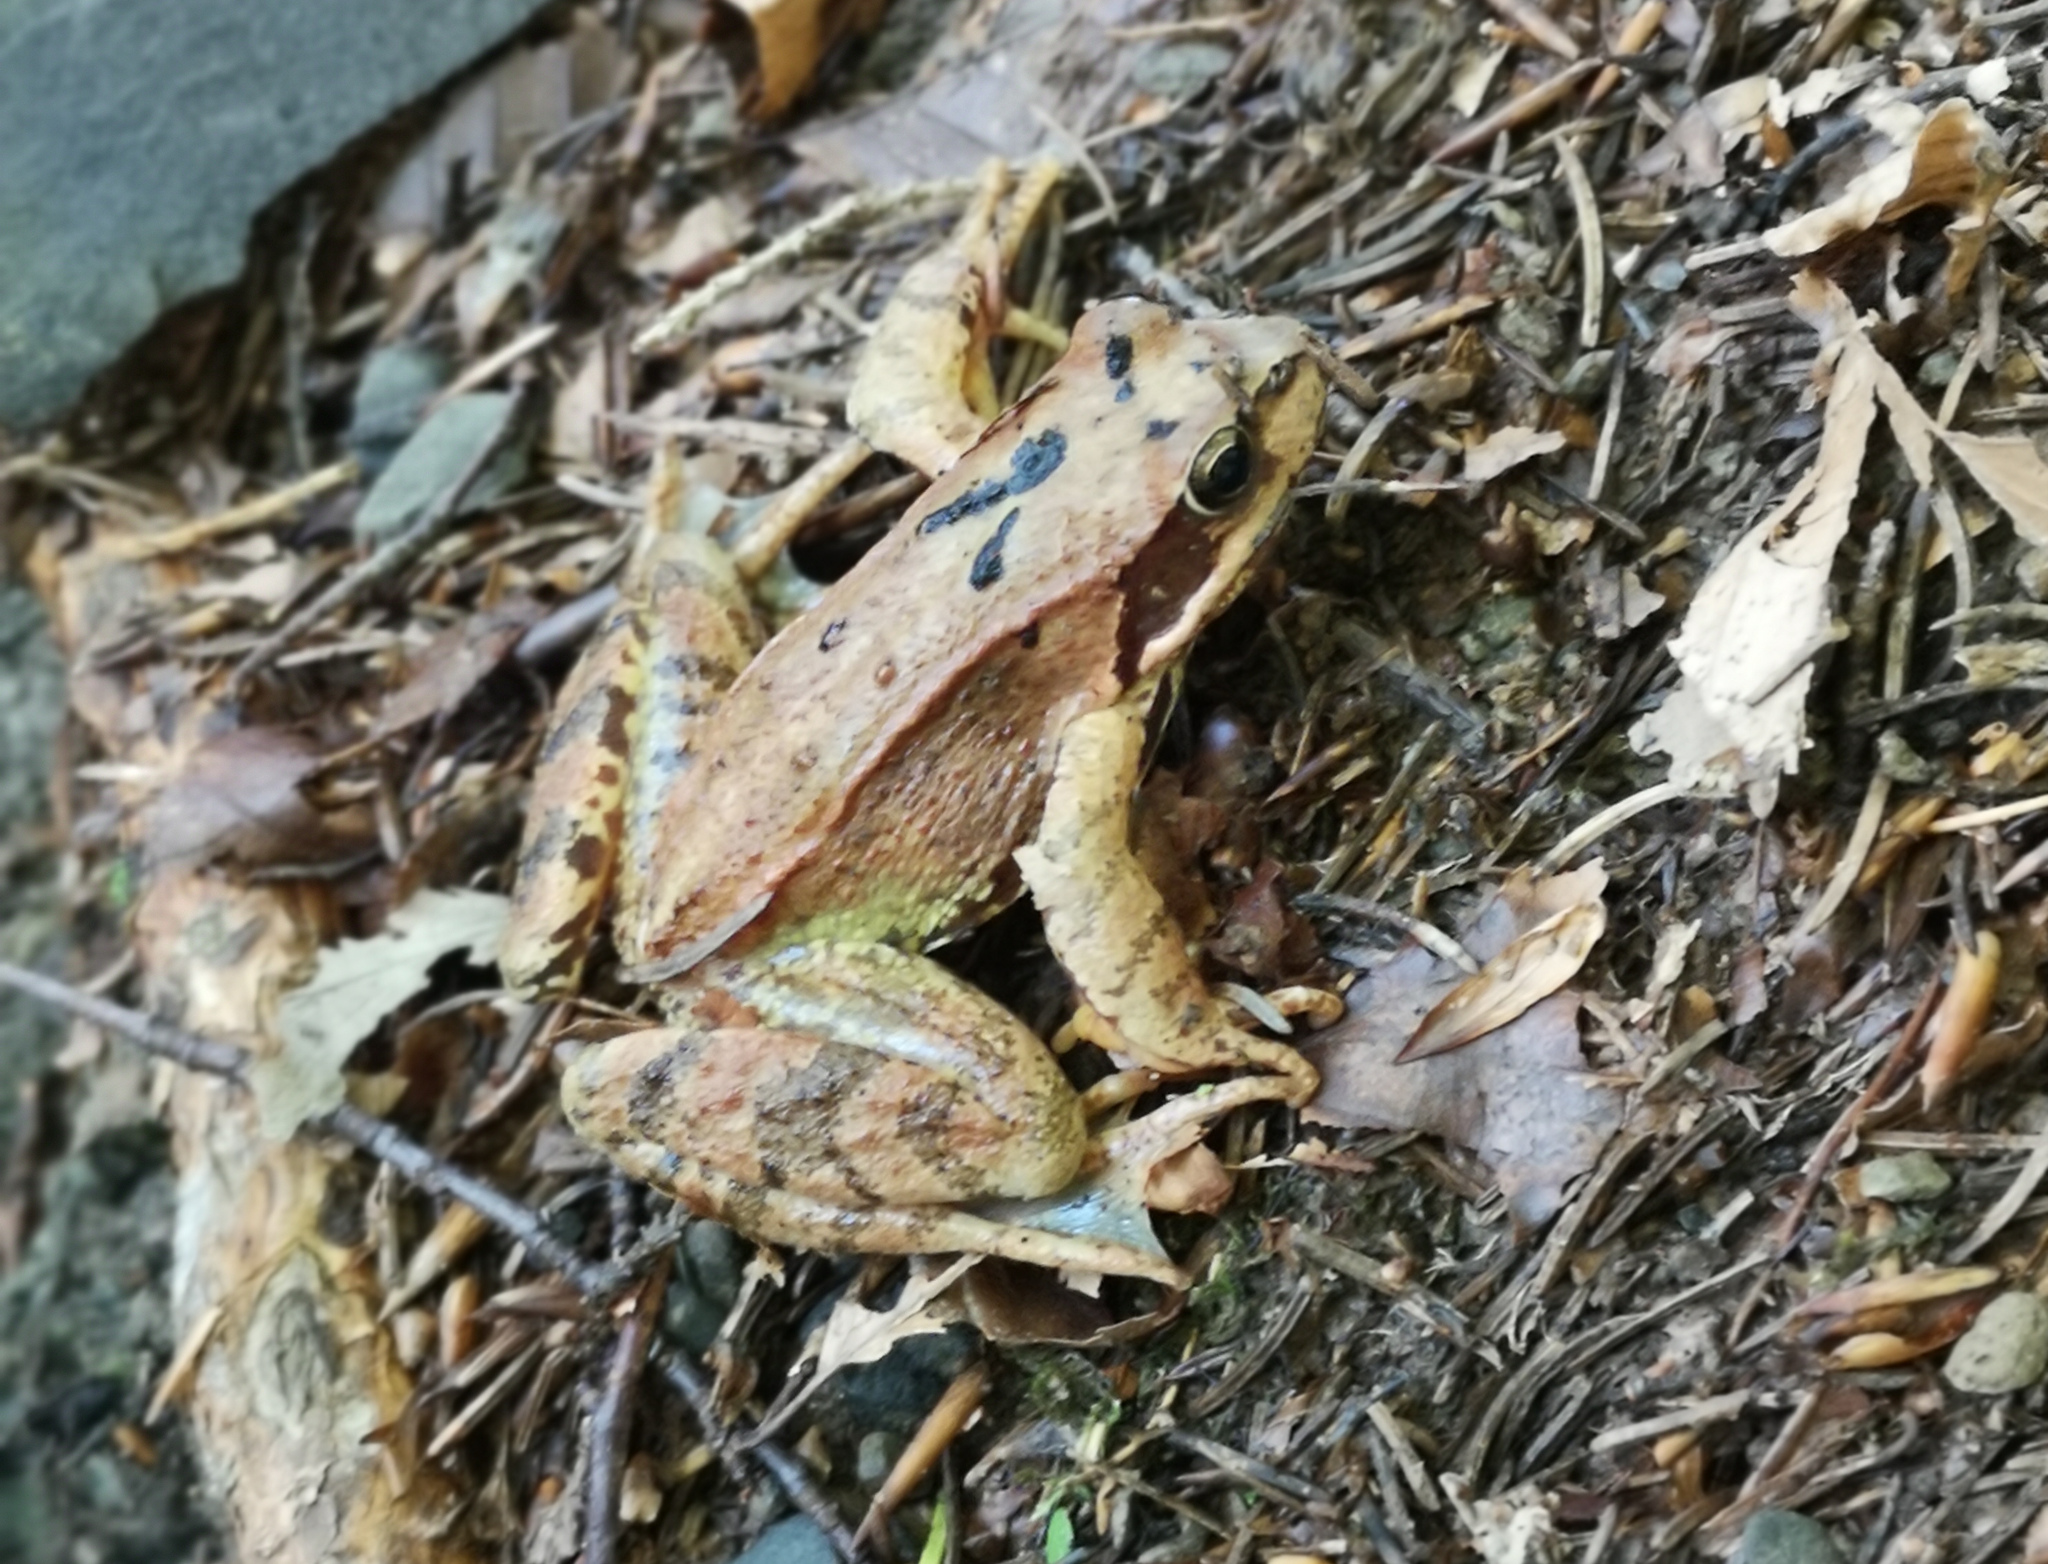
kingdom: Animalia
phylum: Chordata
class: Amphibia
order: Anura
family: Ranidae
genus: Rana
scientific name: Rana temporaria
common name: Common frog
